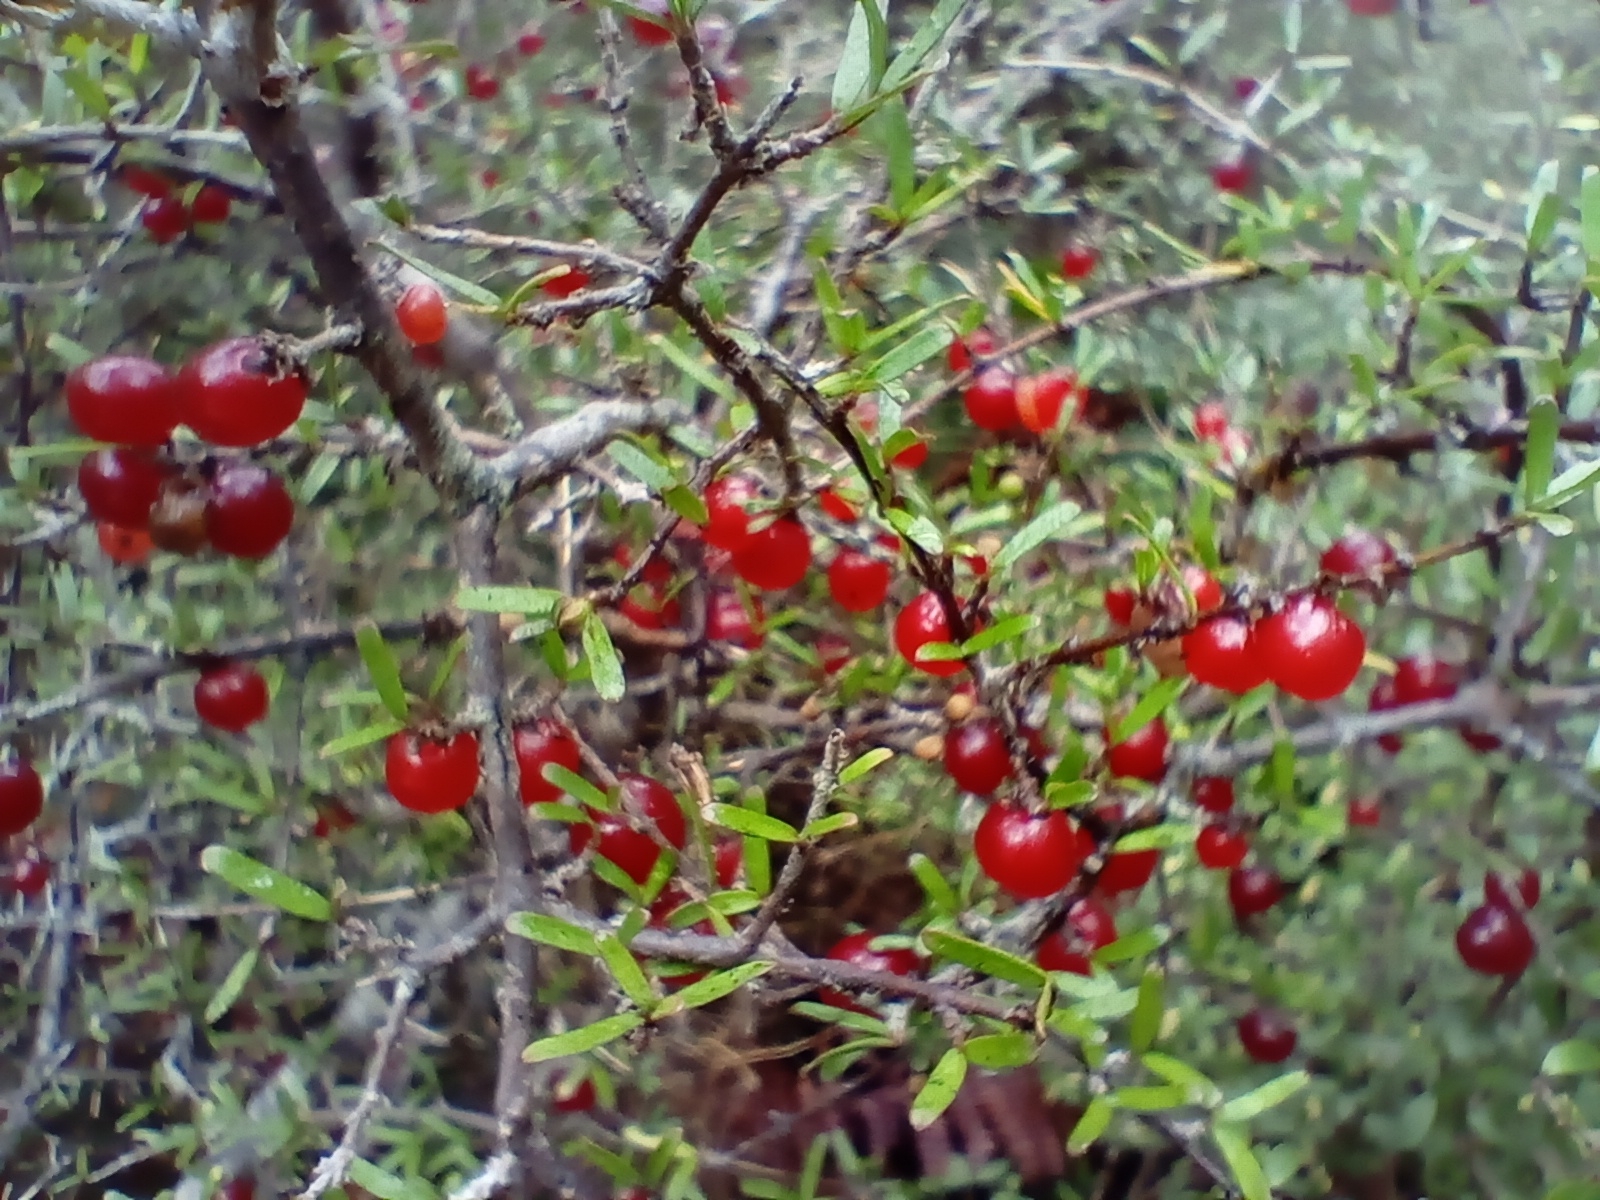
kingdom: Plantae
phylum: Tracheophyta
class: Magnoliopsida
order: Gentianales
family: Rubiaceae
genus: Coprosma
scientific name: Coprosma decurva
